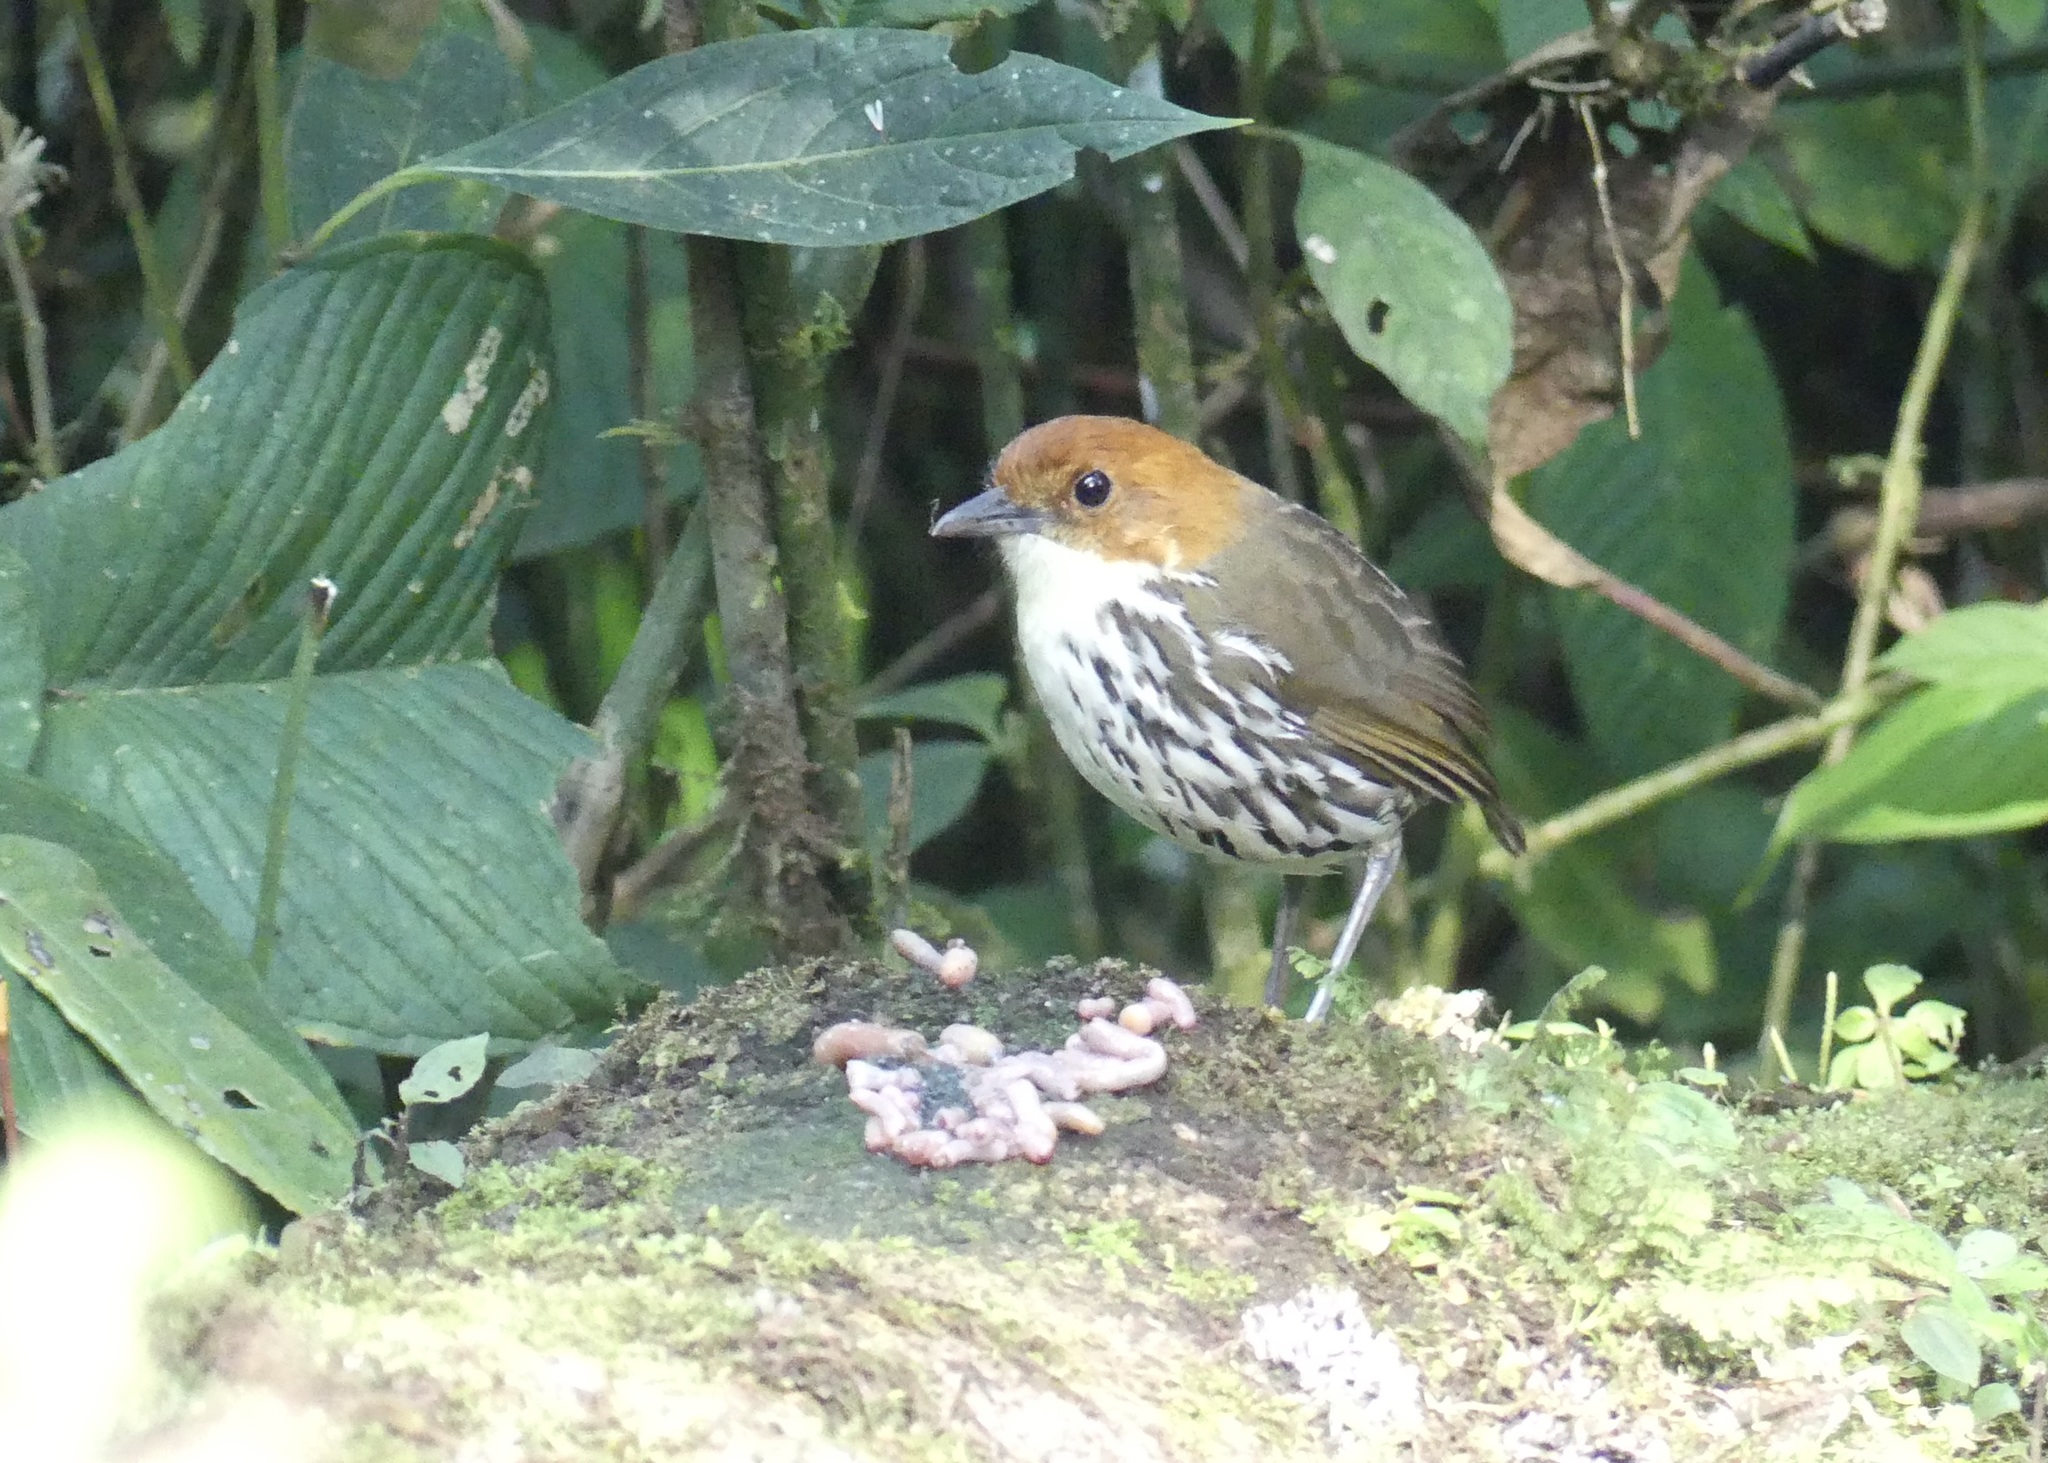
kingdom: Animalia
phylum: Chordata
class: Aves
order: Passeriformes
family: Grallariidae
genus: Grallaria
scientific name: Grallaria ruficapilla
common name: Chestnut-crowned antpitta
